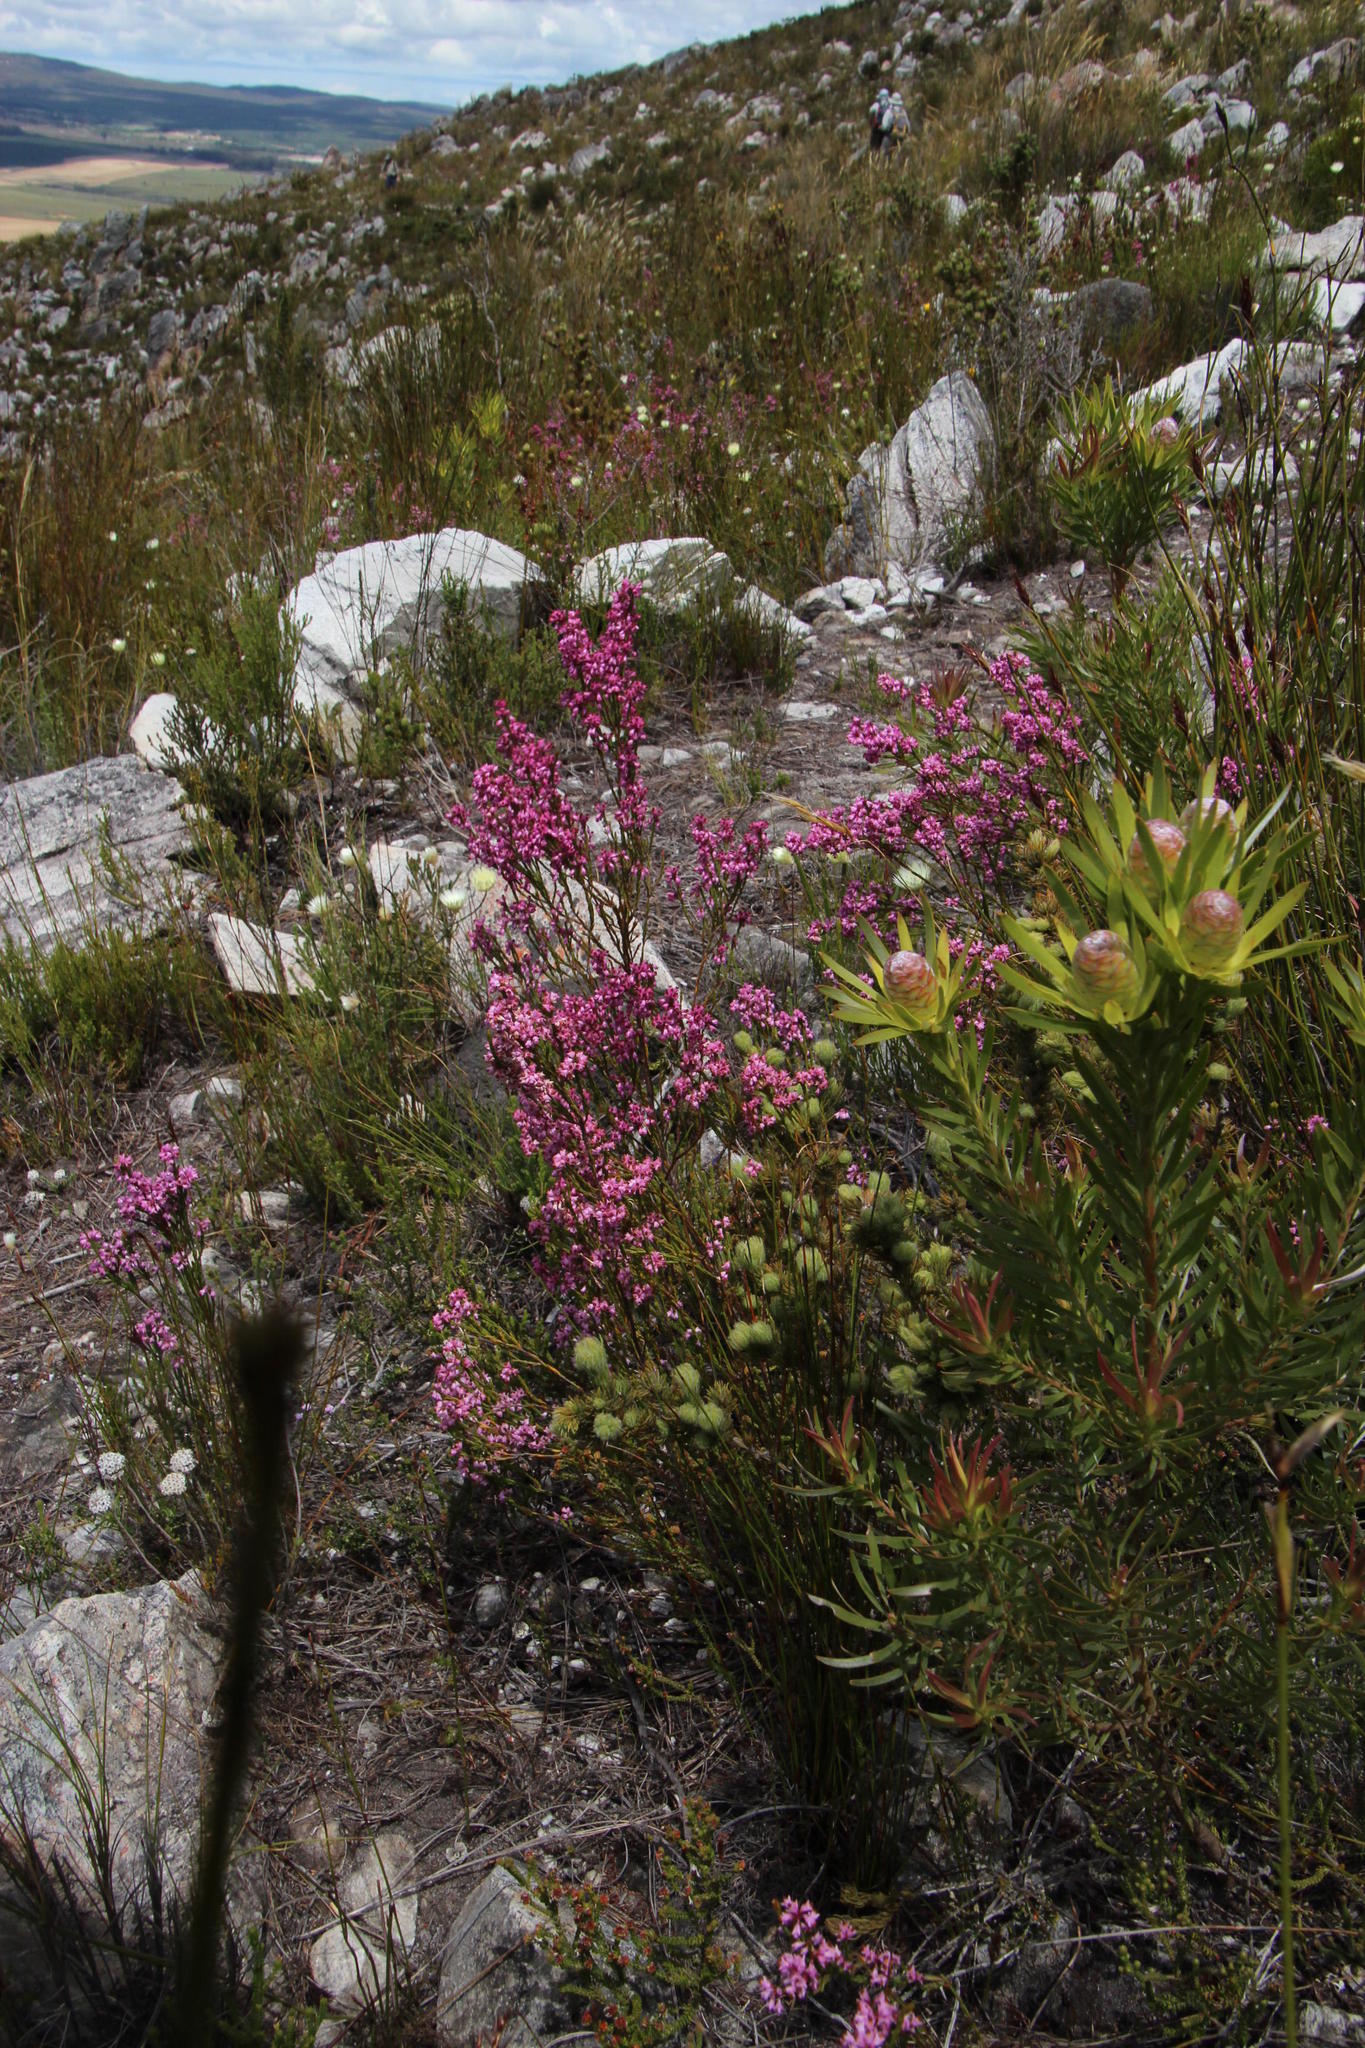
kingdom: Plantae
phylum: Tracheophyta
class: Magnoliopsida
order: Ericales
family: Ericaceae
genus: Erica
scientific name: Erica corifolia
